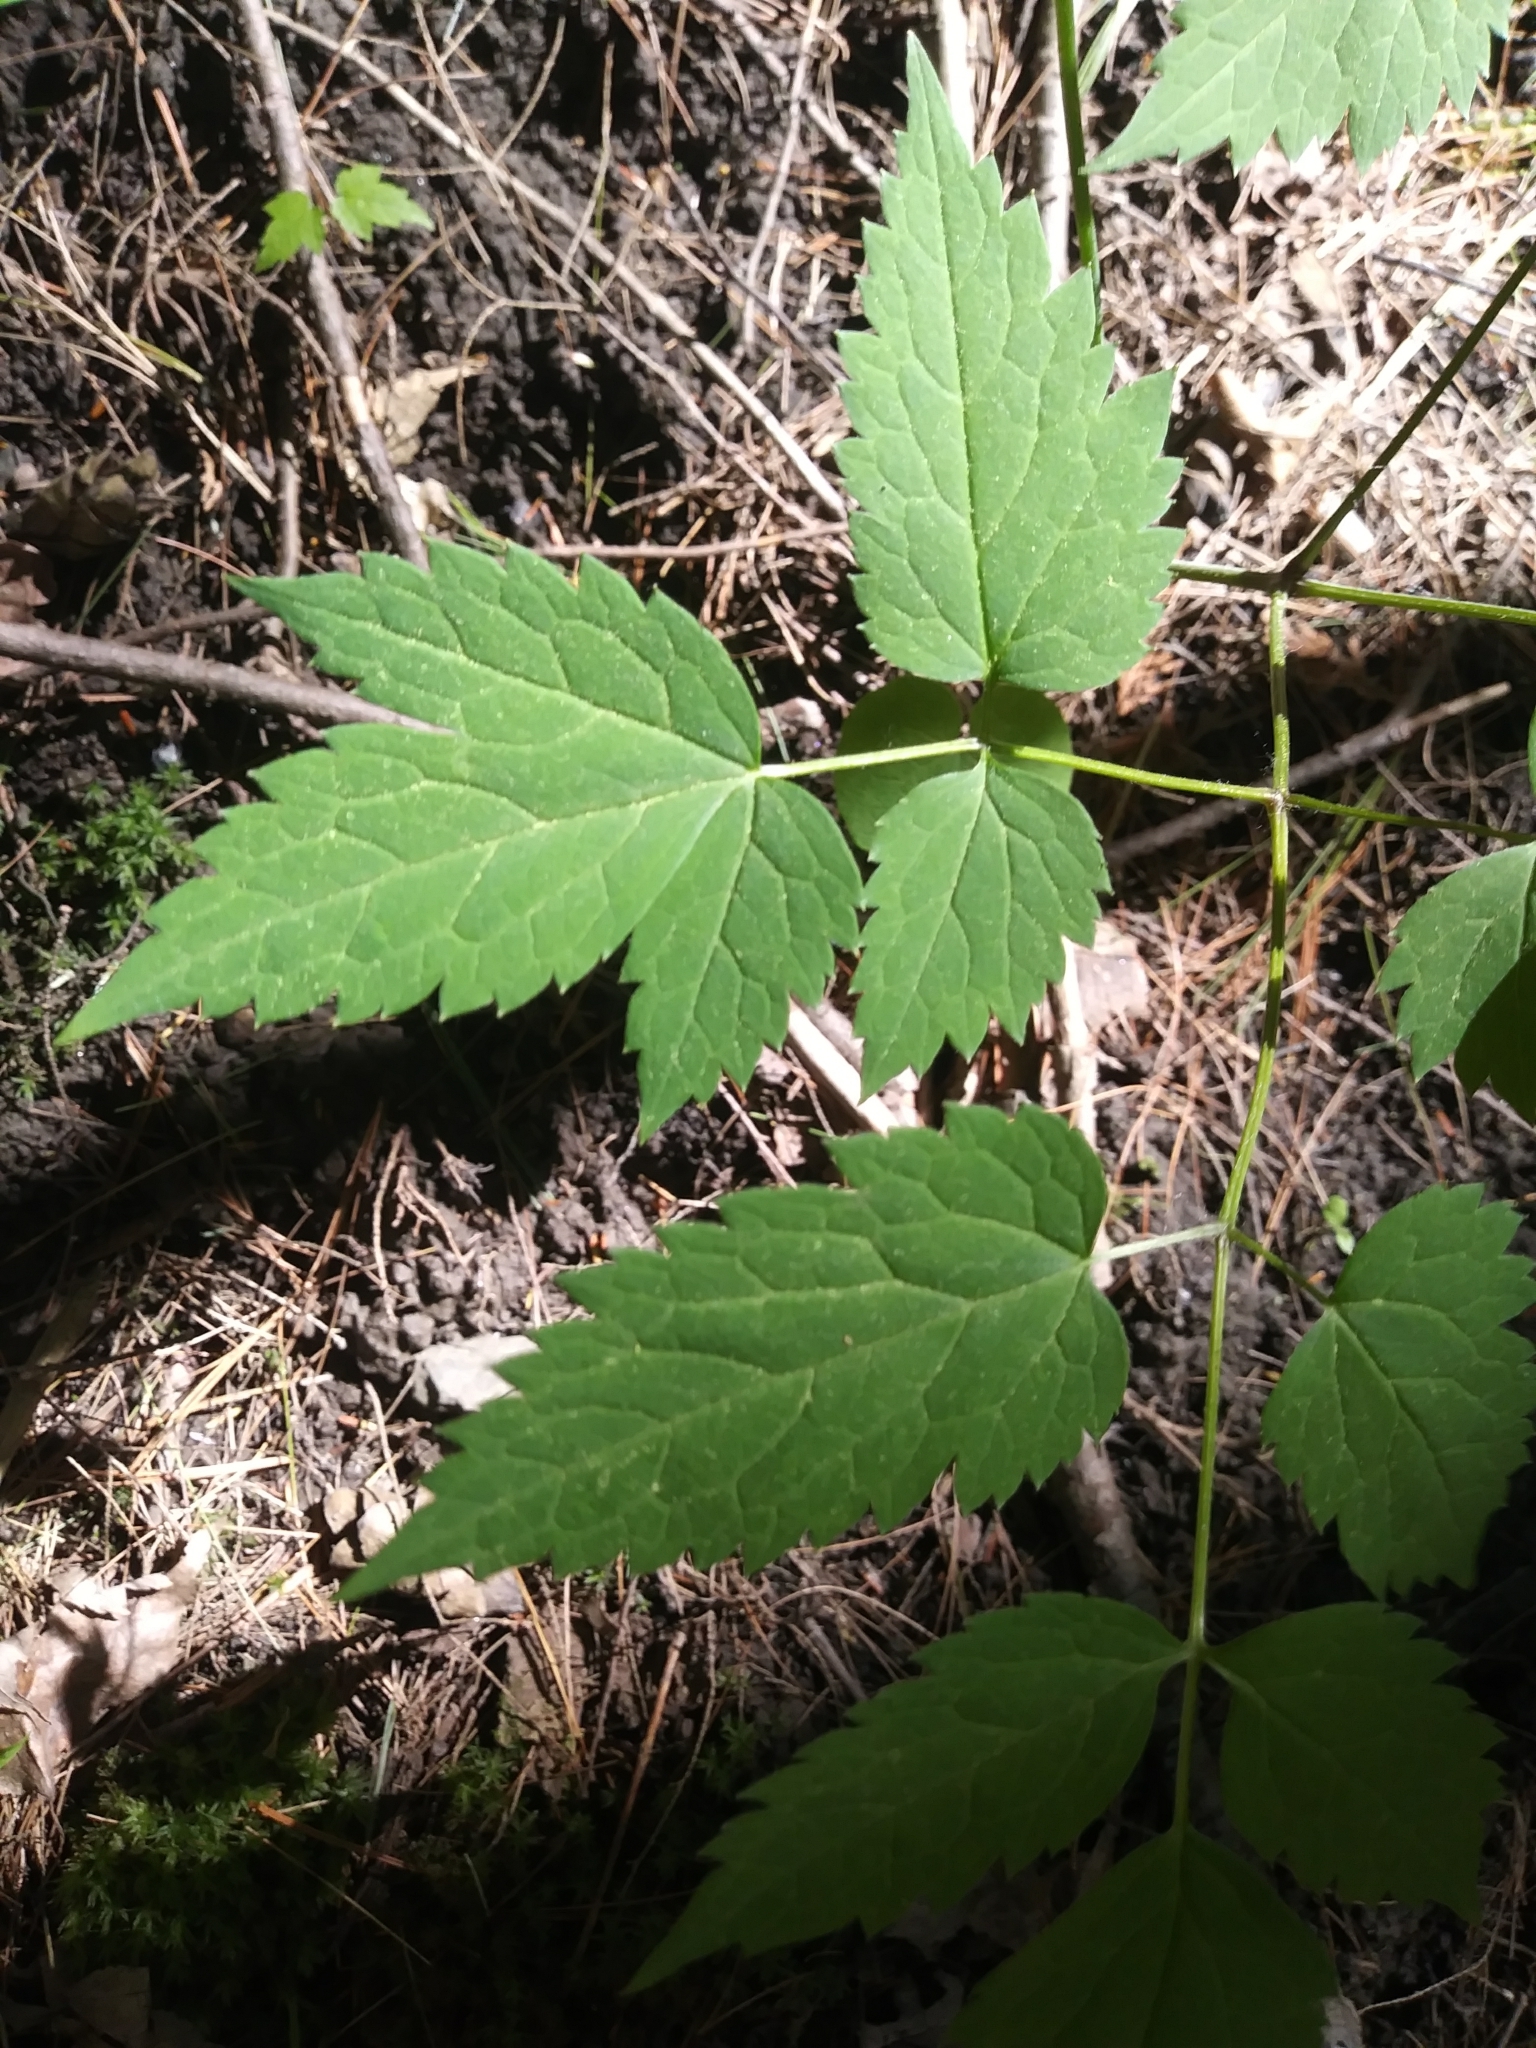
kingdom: Plantae
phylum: Tracheophyta
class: Magnoliopsida
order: Ranunculales
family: Ranunculaceae
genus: Actaea
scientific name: Actaea pachypoda
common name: Doll's-eyes
